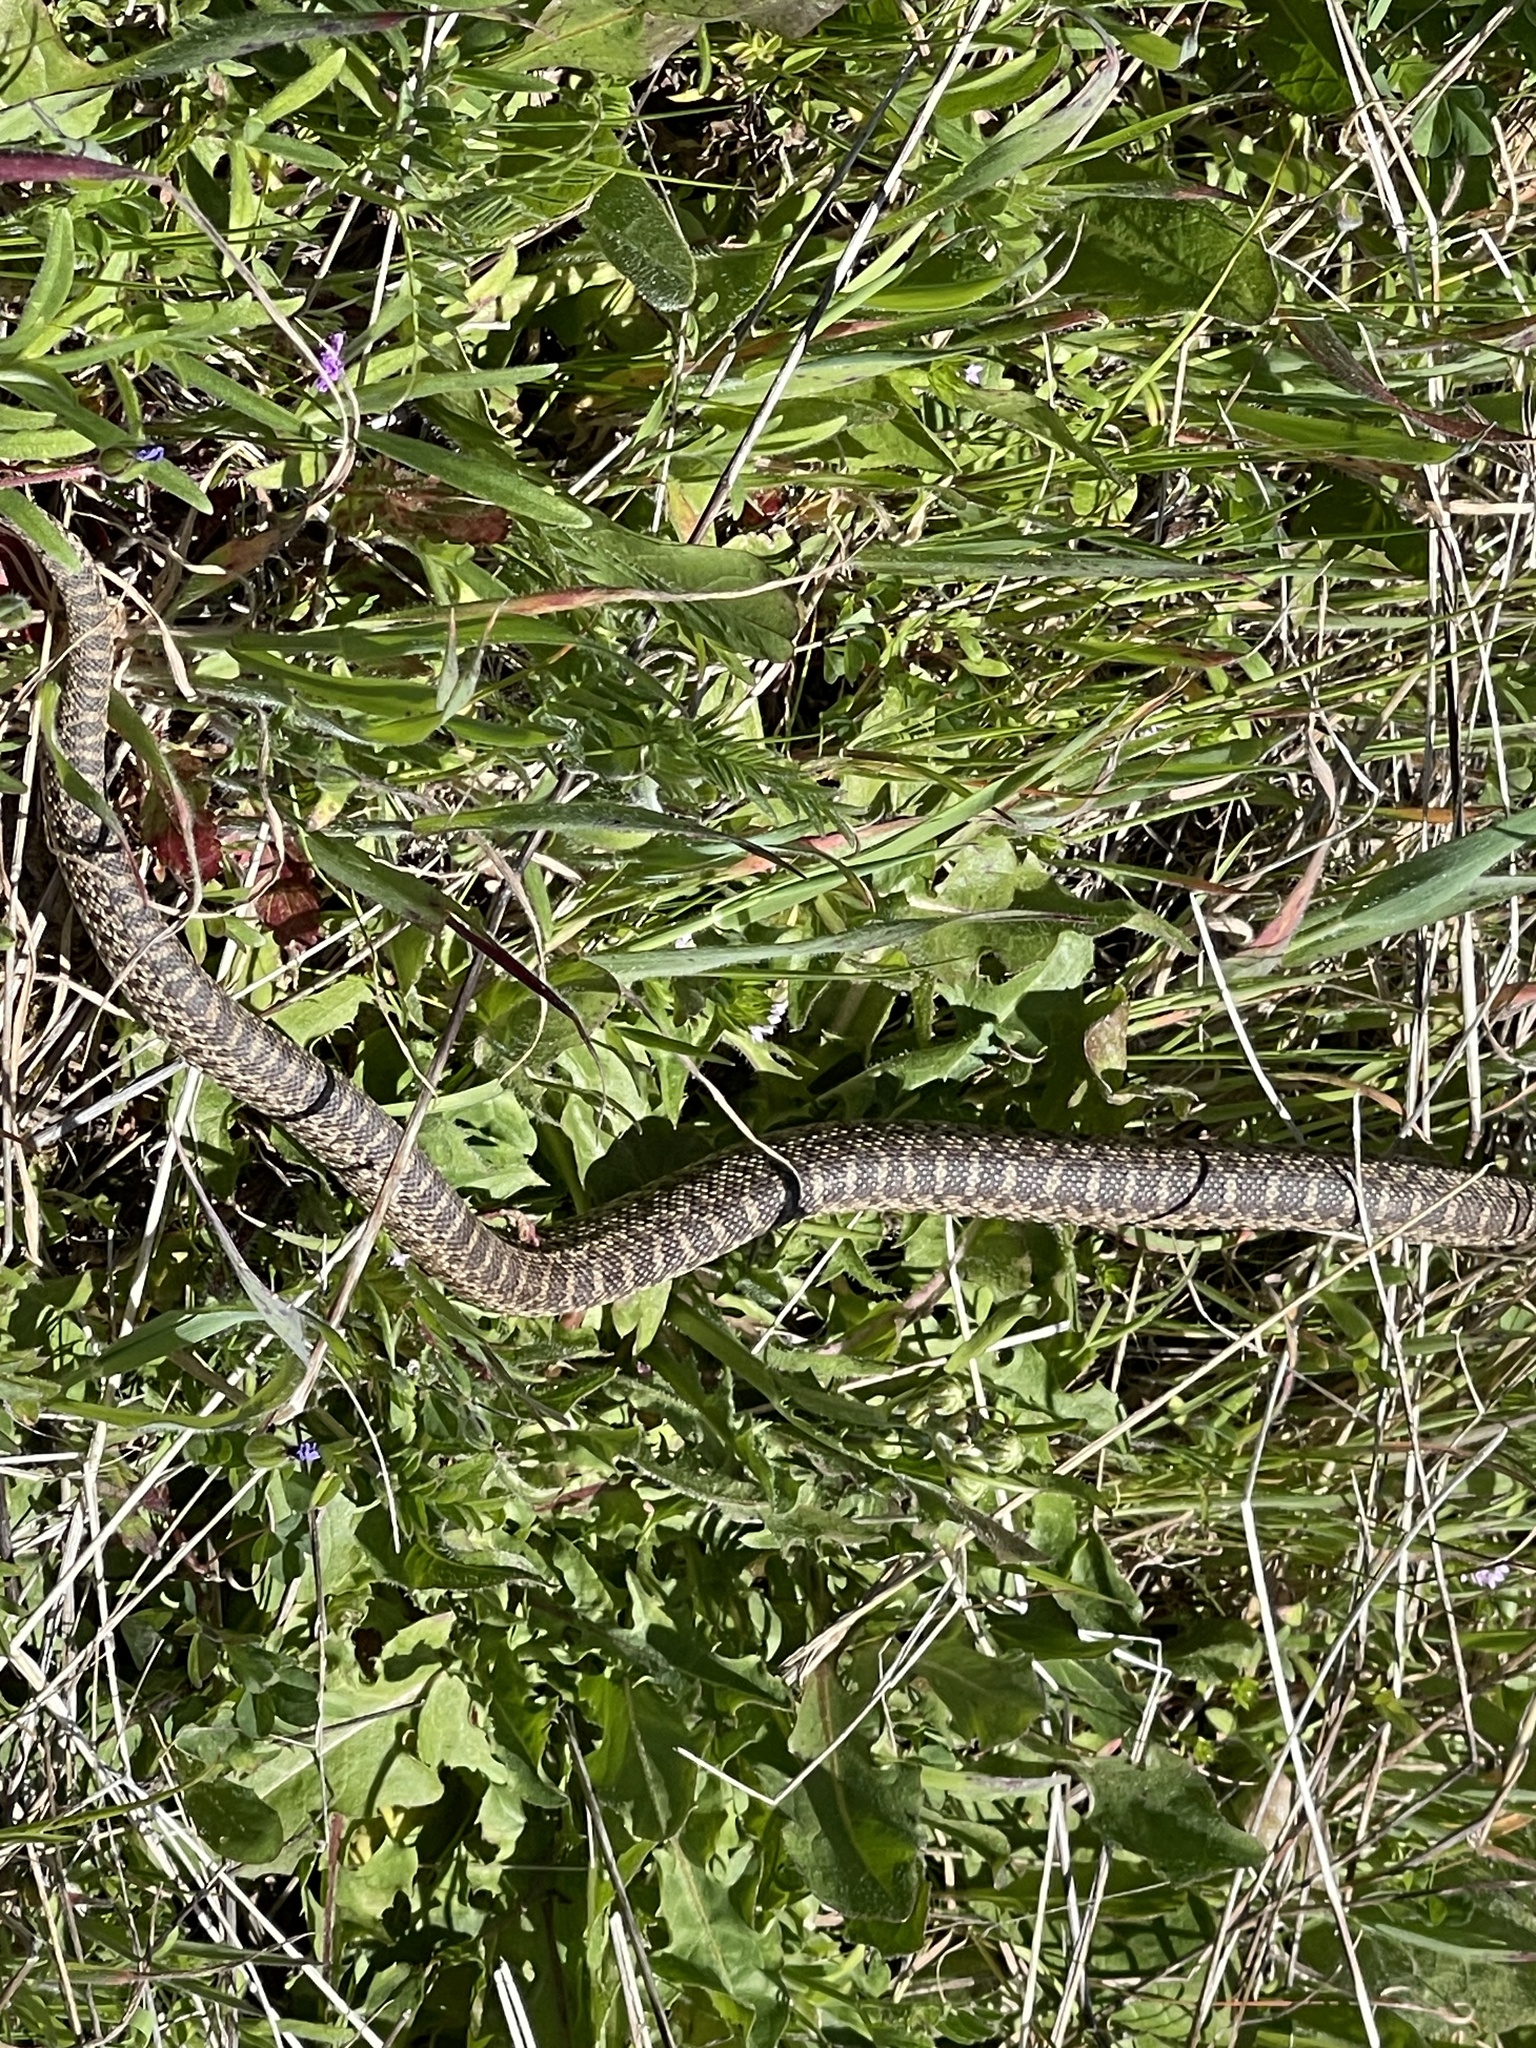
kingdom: Animalia
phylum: Chordata
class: Squamata
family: Colubridae
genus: Pituophis
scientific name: Pituophis catenifer
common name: Gopher snake
